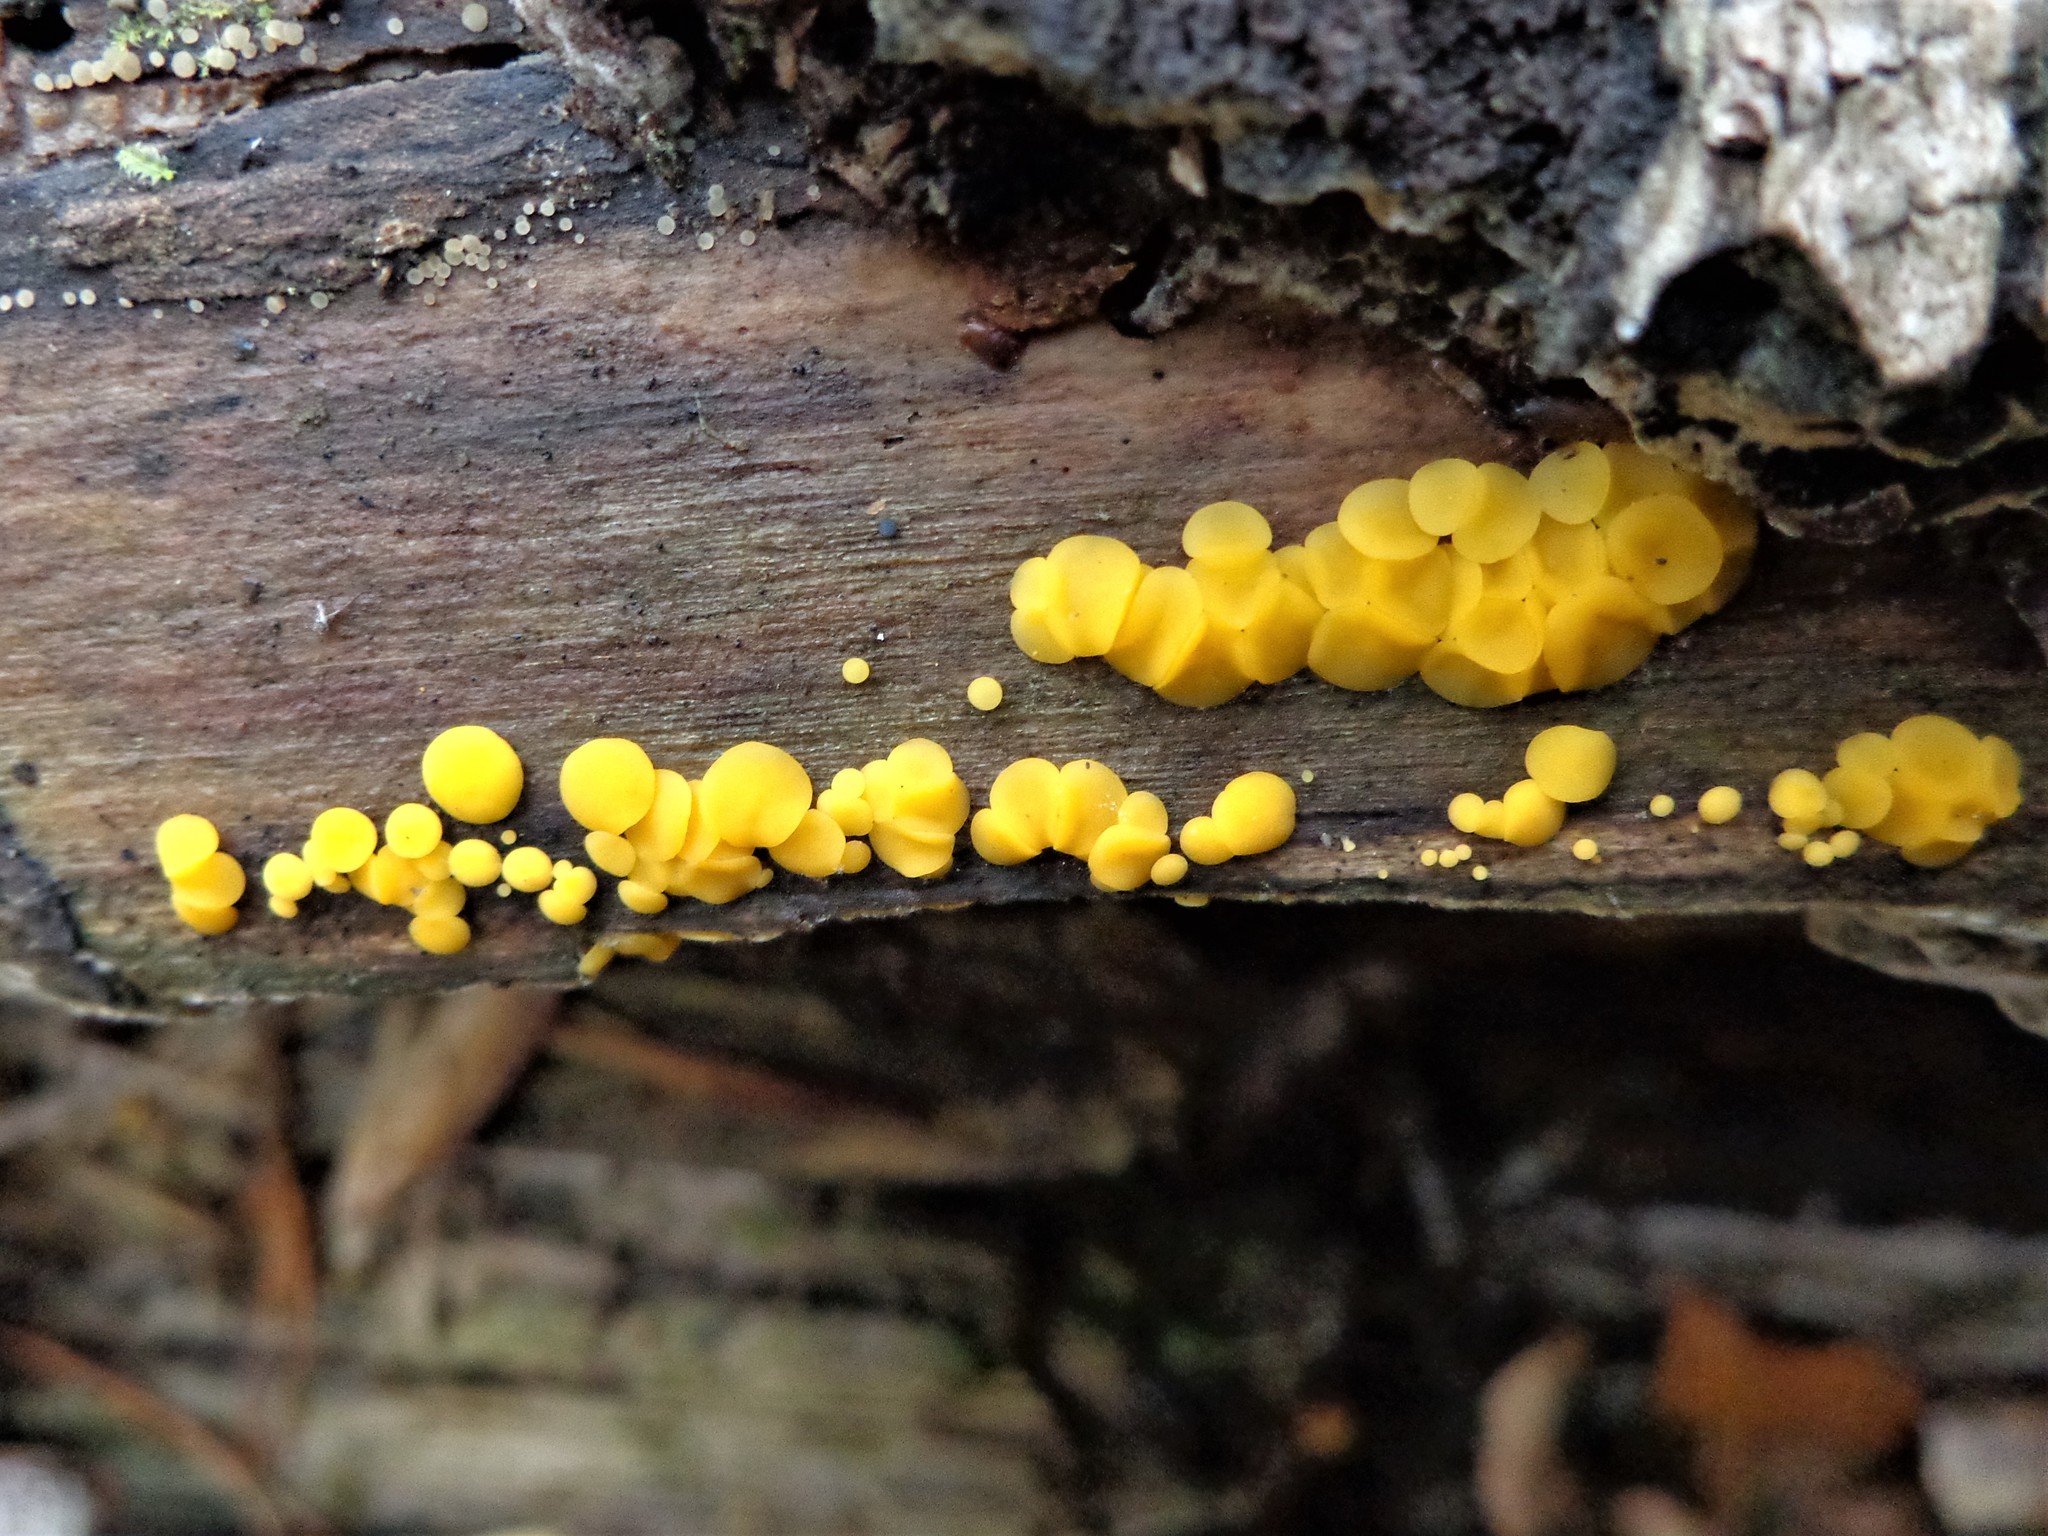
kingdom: Fungi
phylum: Ascomycota
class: Leotiomycetes
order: Helotiales
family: Pezizellaceae
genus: Calycina
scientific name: Calycina citrina
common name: Yellow fairy cups
